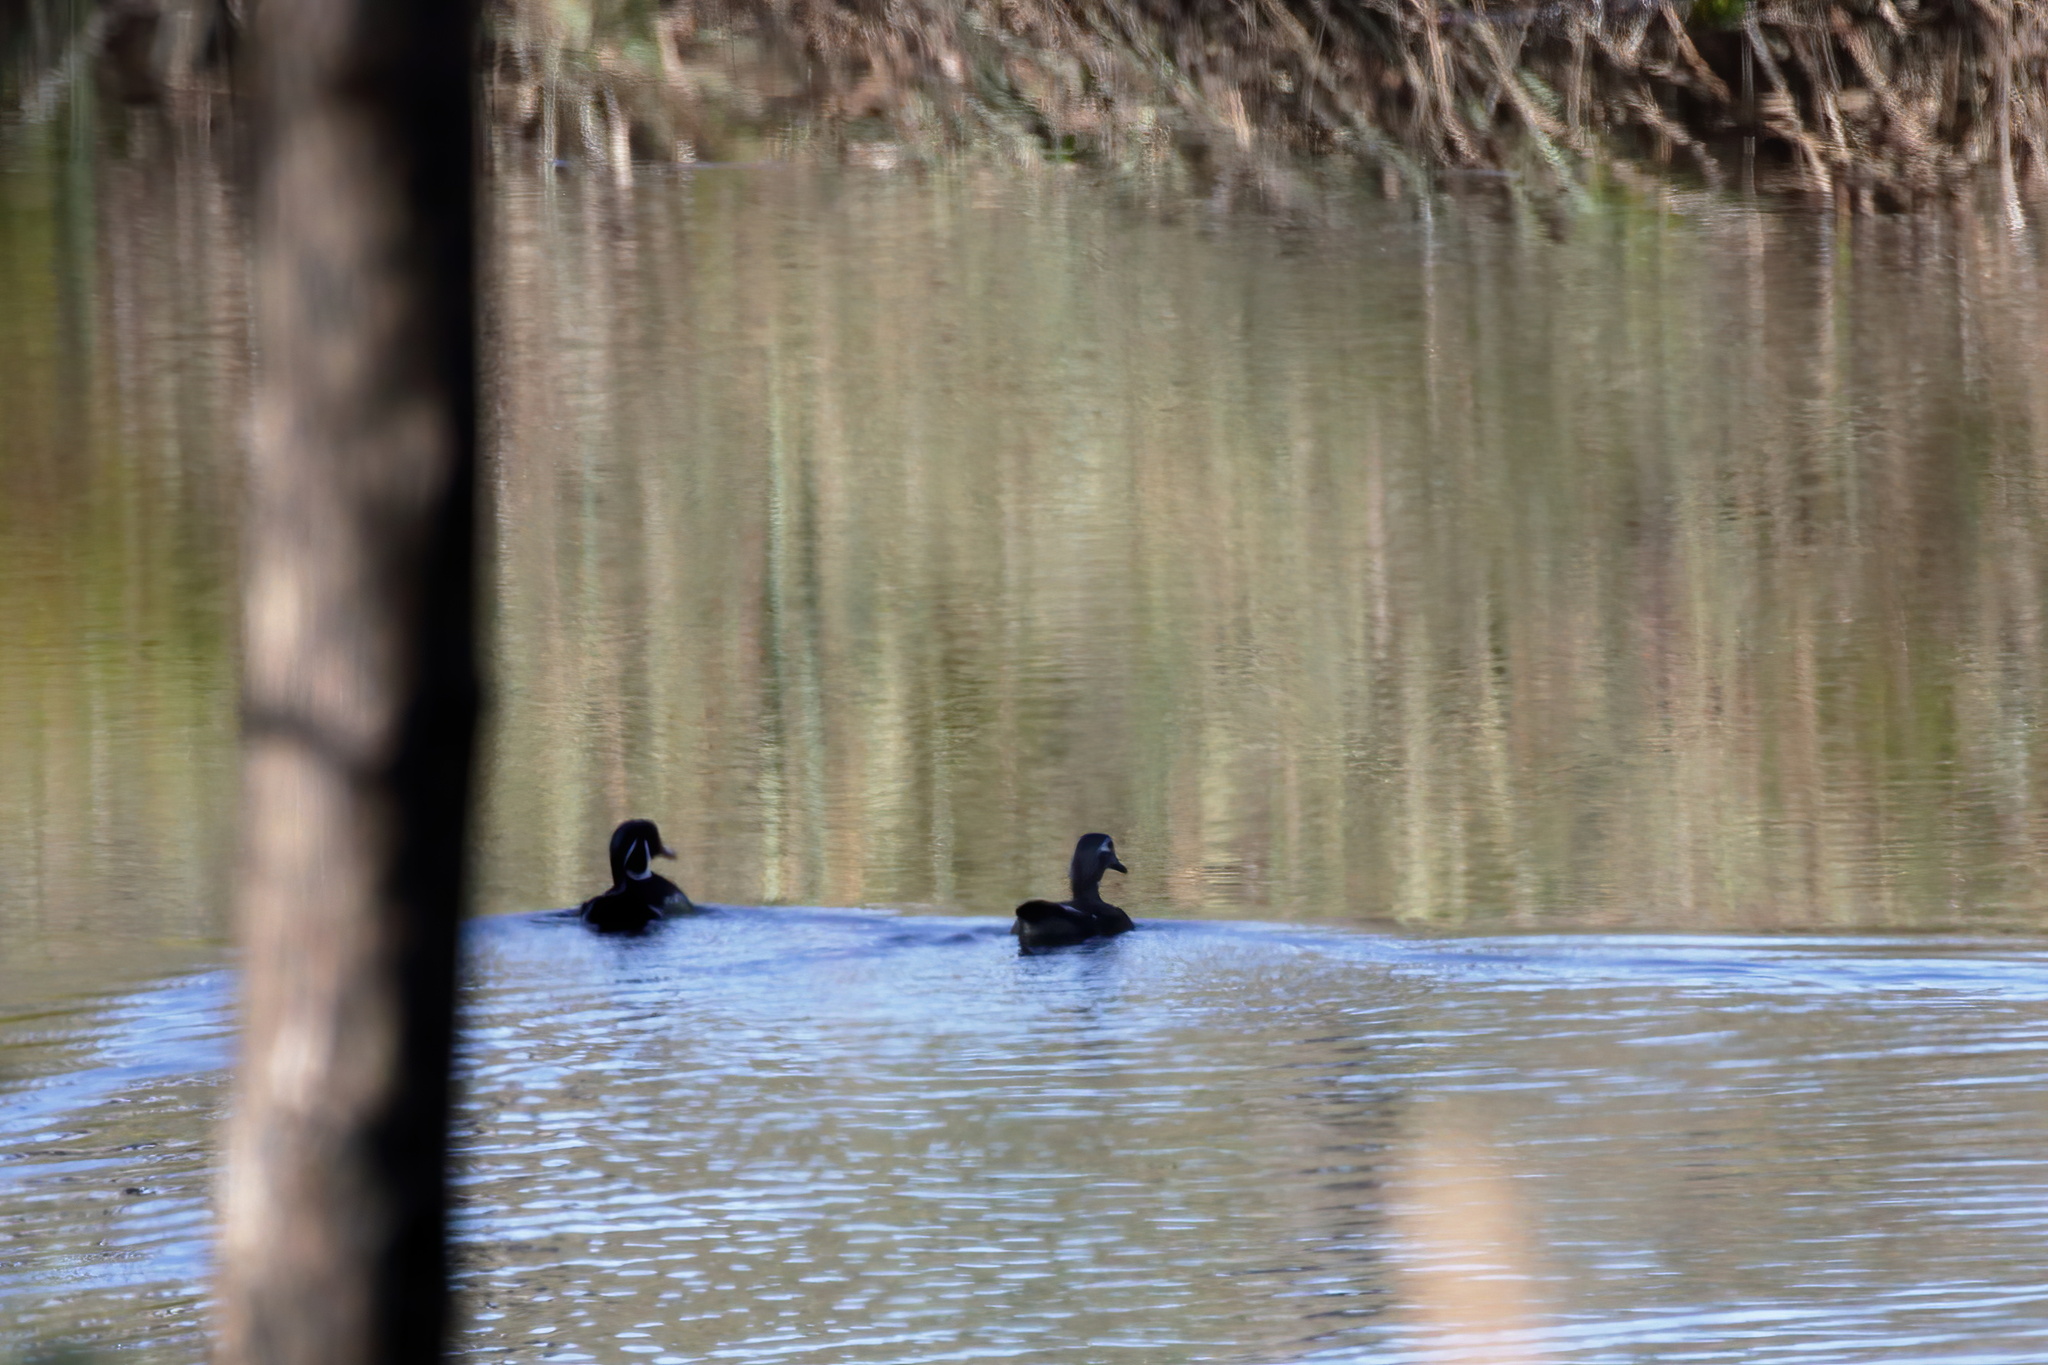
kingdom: Animalia
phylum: Chordata
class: Aves
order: Anseriformes
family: Anatidae
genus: Aix
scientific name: Aix sponsa
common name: Wood duck
